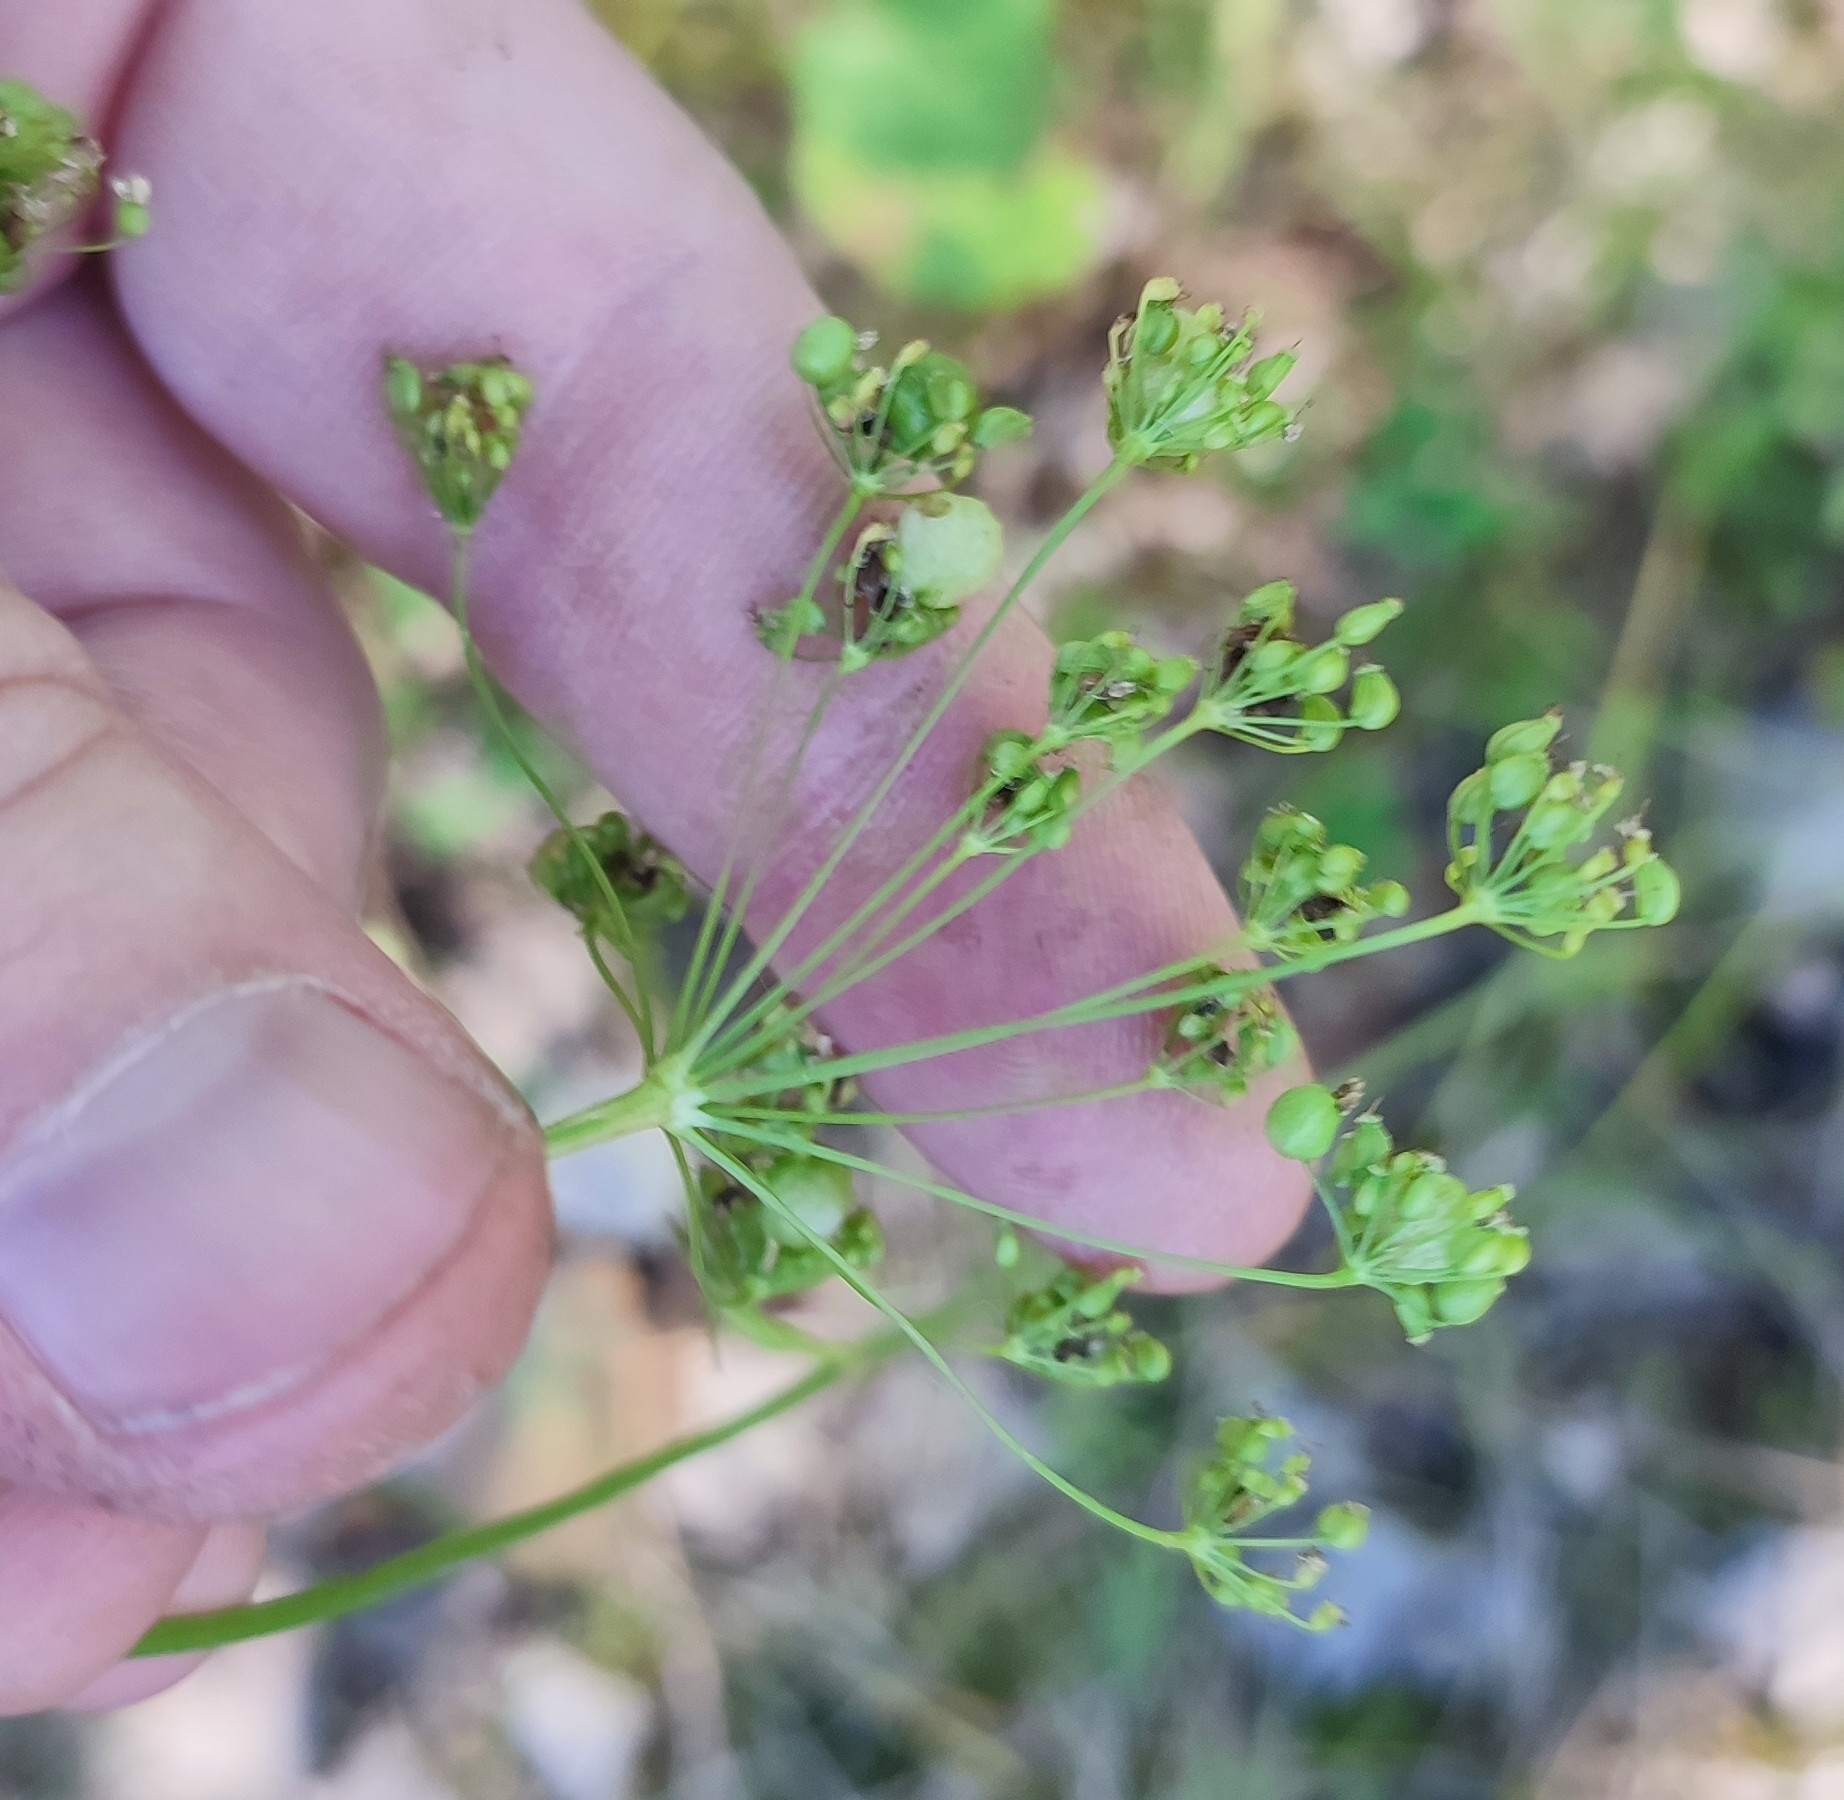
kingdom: Plantae
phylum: Tracheophyta
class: Magnoliopsida
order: Apiales
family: Apiaceae
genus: Pimpinella
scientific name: Pimpinella saxifraga
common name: Burnet-saxifrage
